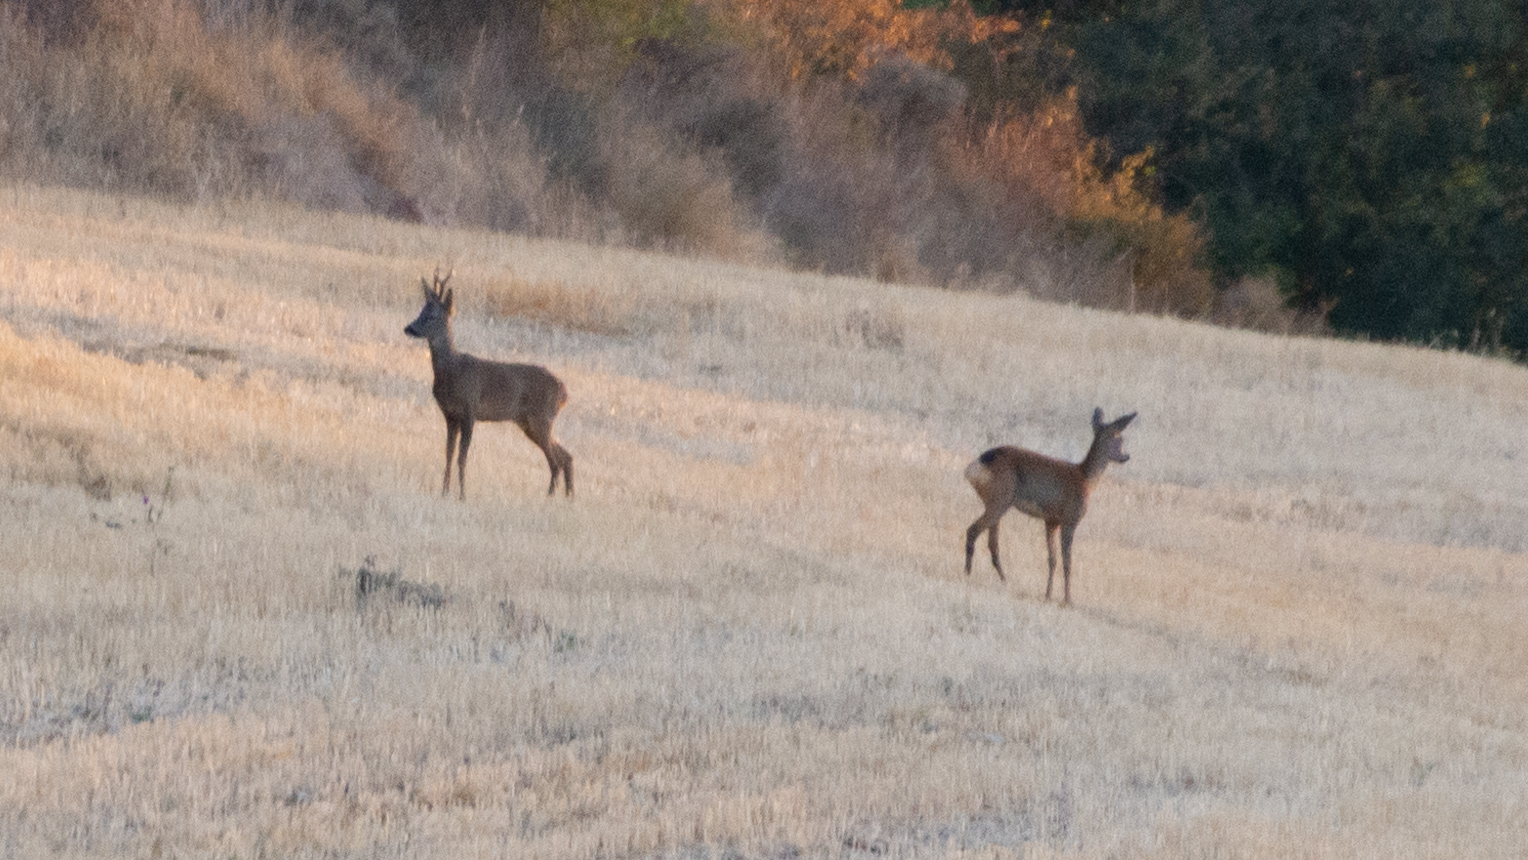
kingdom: Animalia
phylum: Chordata
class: Mammalia
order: Artiodactyla
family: Cervidae
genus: Capreolus
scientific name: Capreolus capreolus
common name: Western roe deer
